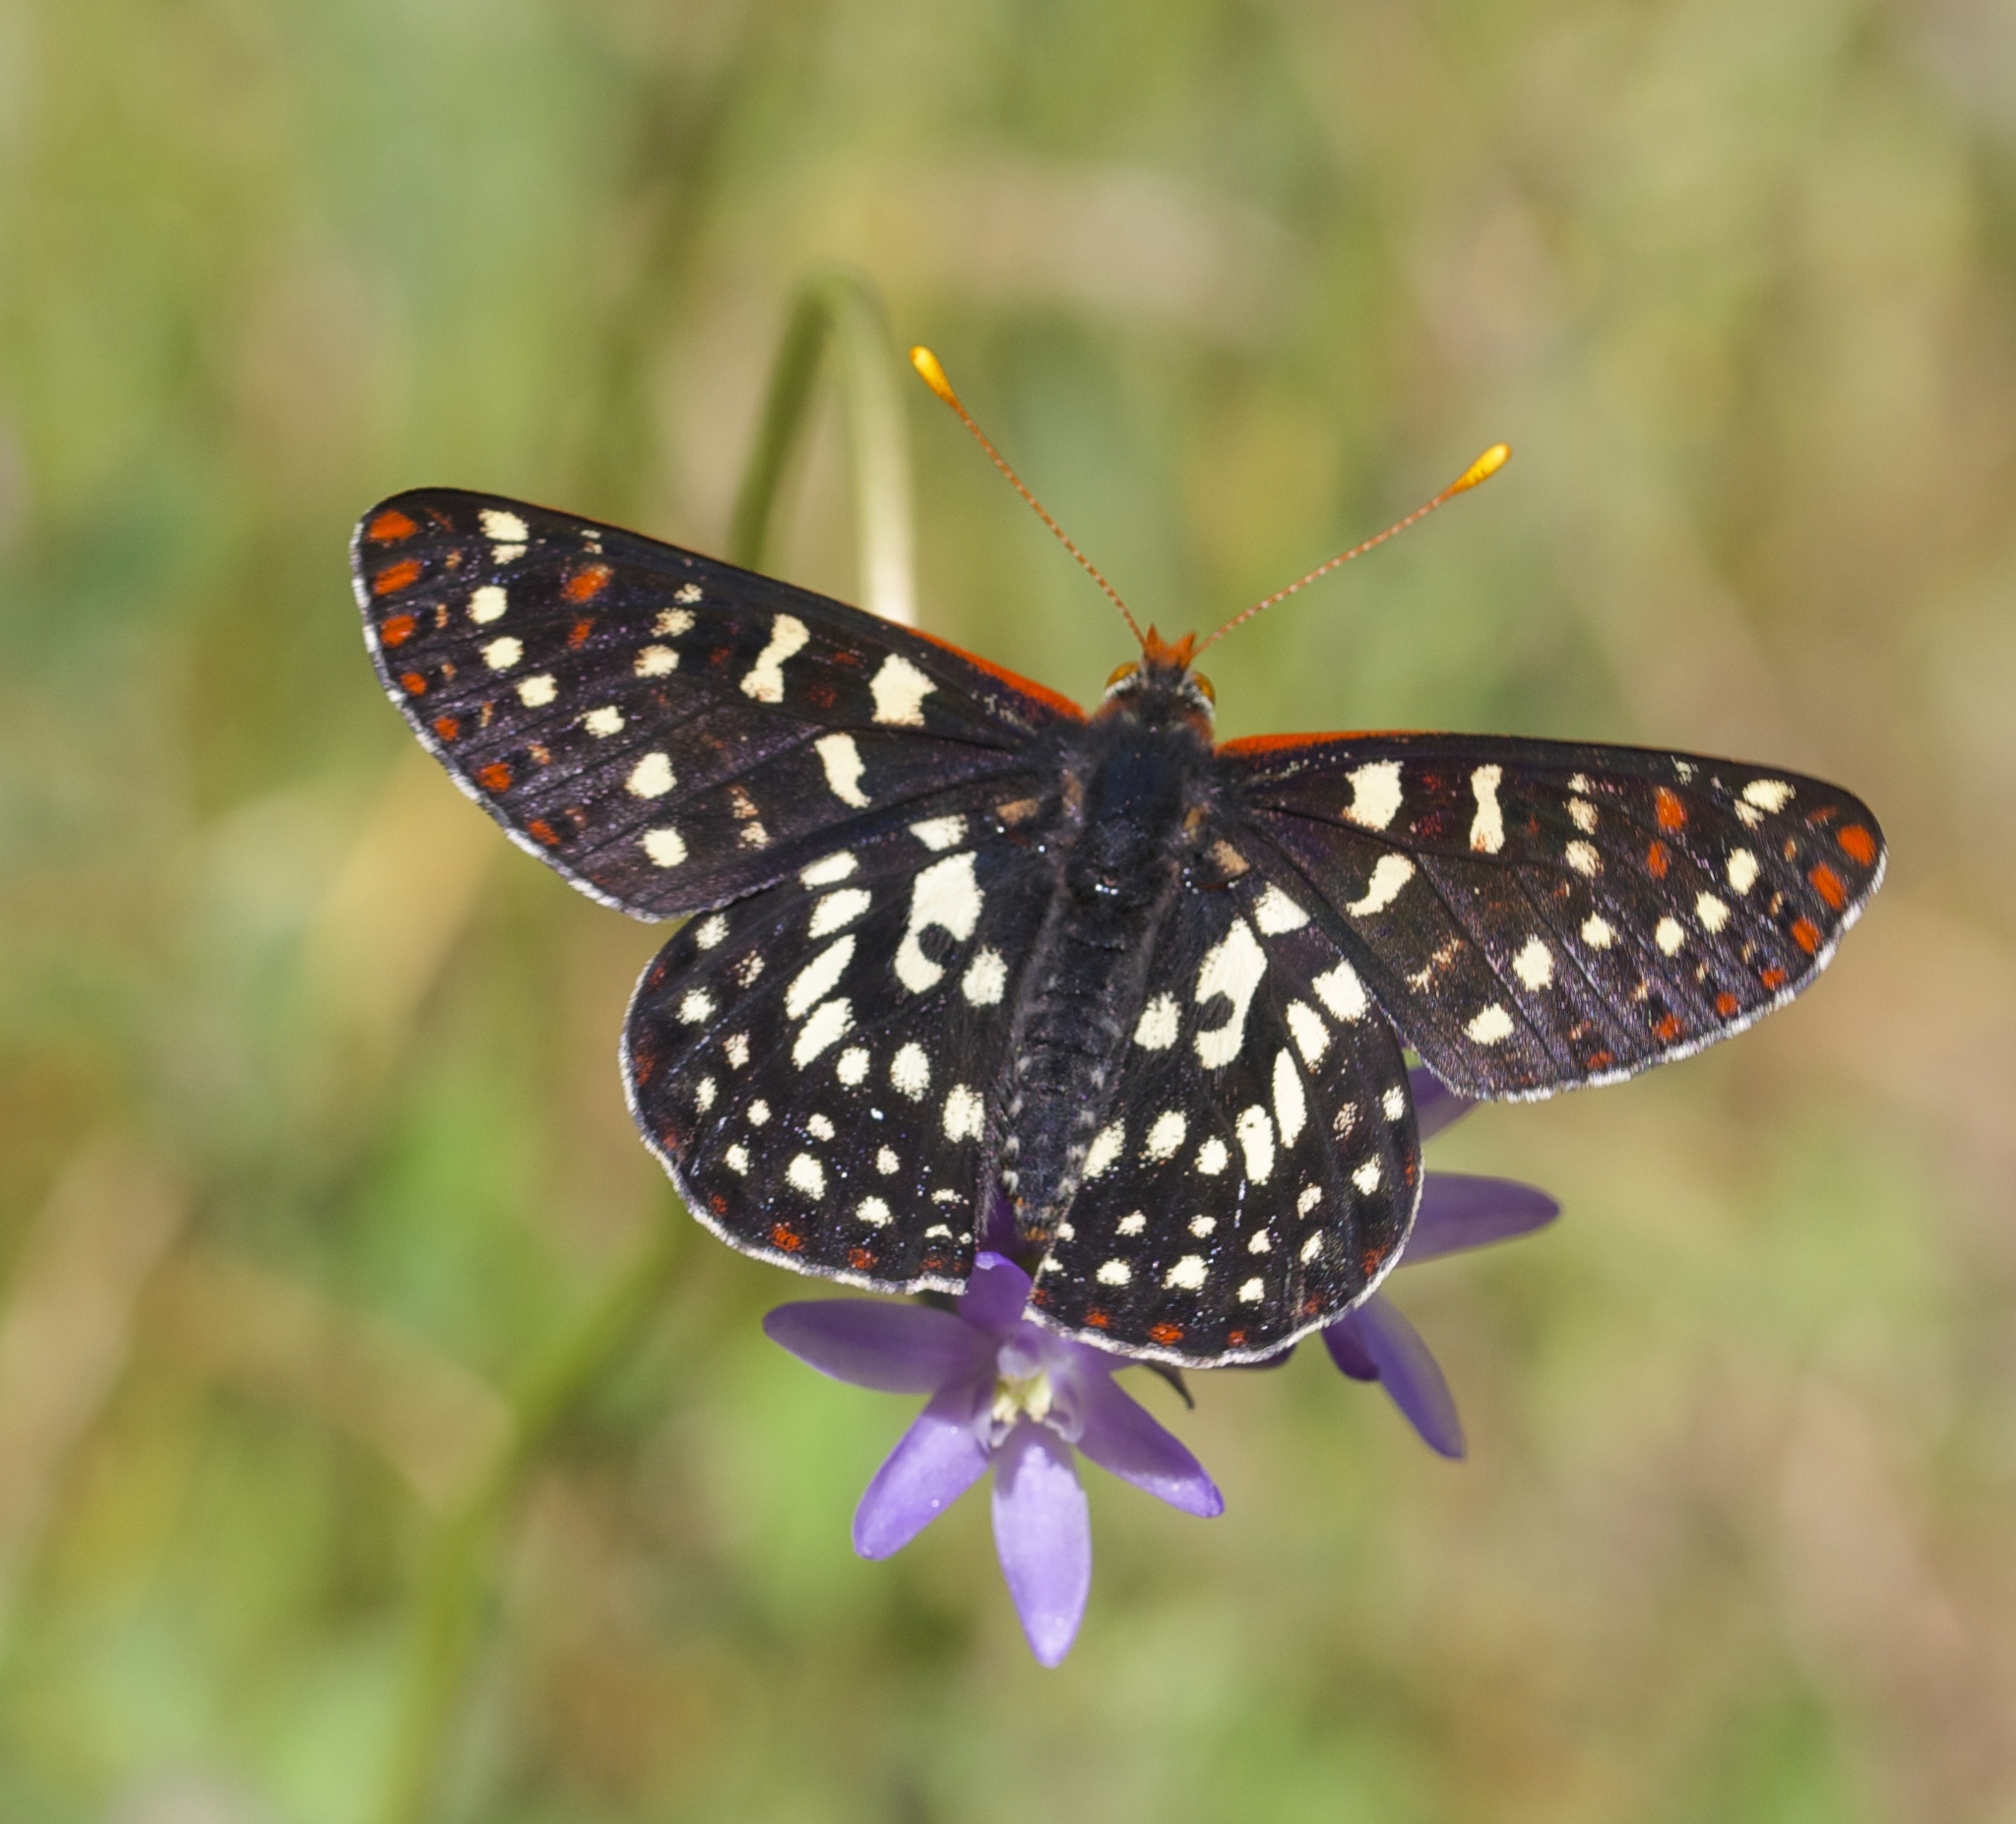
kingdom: Animalia
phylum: Arthropoda
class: Insecta
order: Lepidoptera
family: Nymphalidae
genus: Occidryas
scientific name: Occidryas chalcedona
